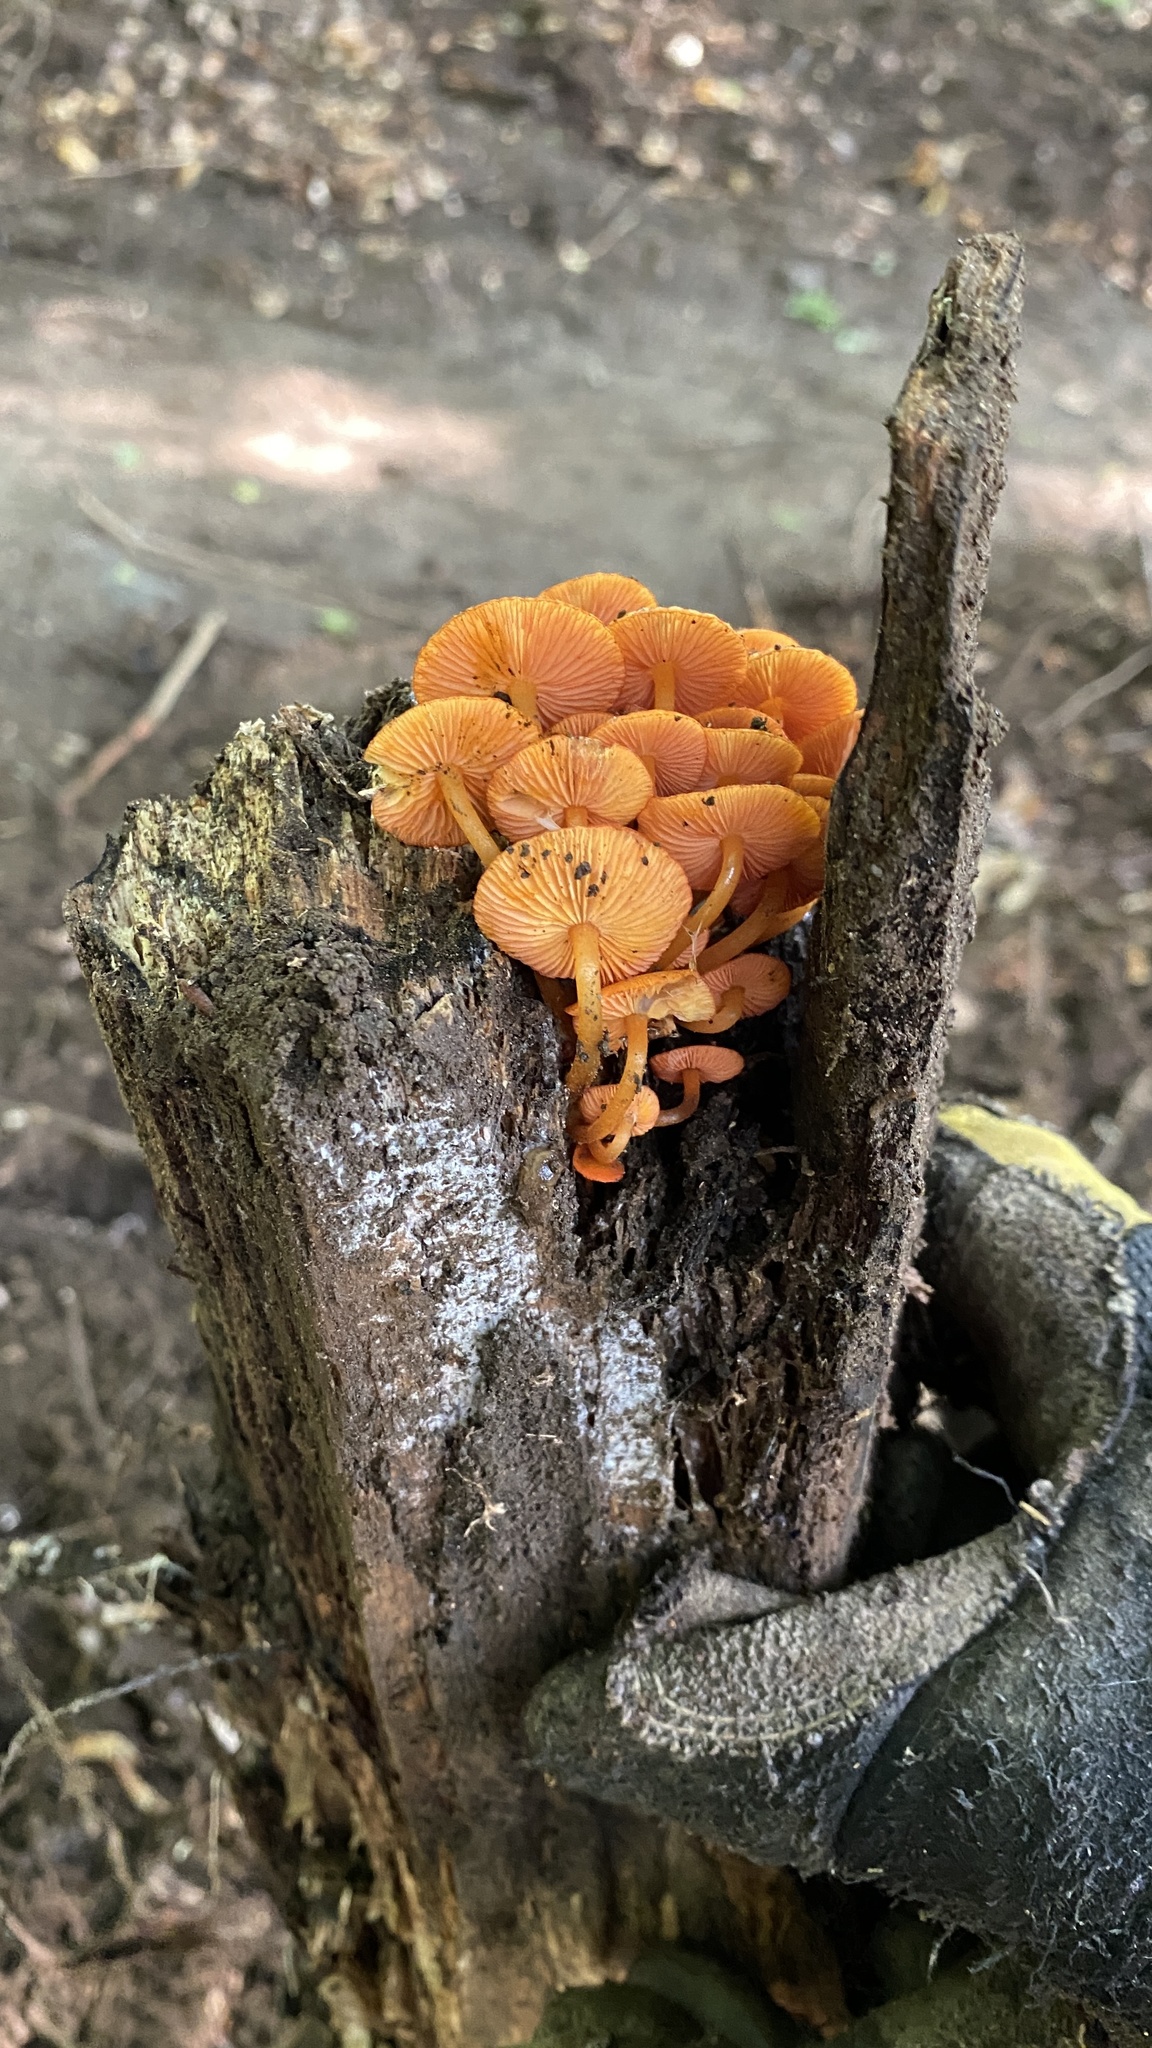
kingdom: Fungi
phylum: Basidiomycota
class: Agaricomycetes
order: Agaricales
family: Mycenaceae
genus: Mycena
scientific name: Mycena leaiana
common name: Orange mycena
